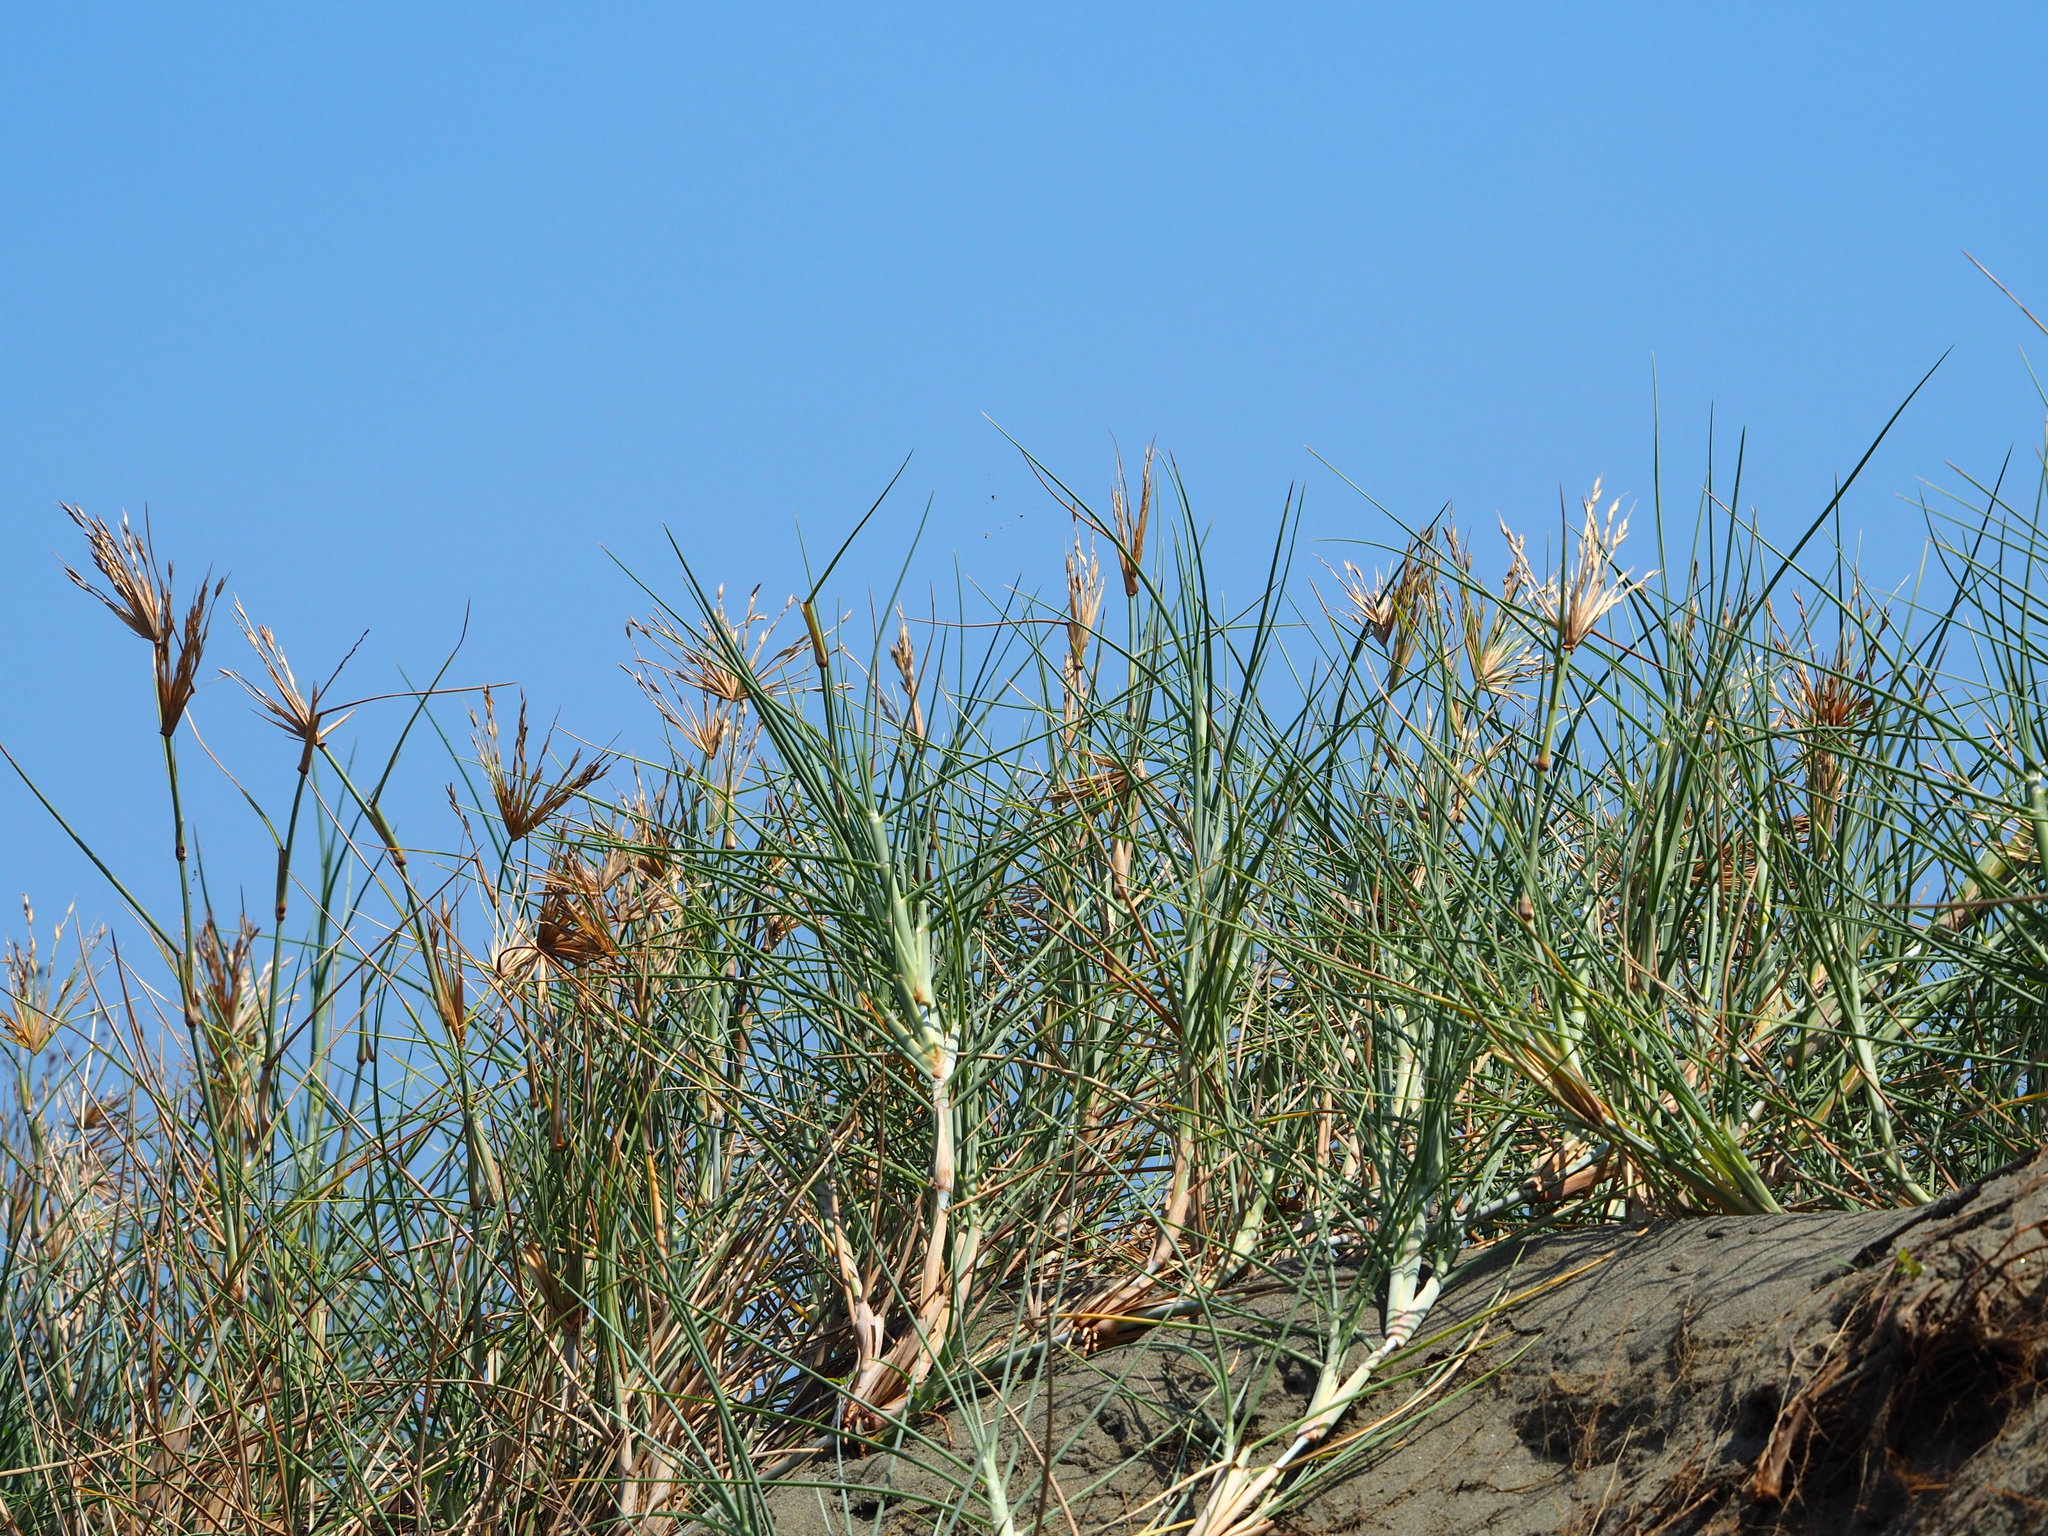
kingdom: Plantae
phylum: Tracheophyta
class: Liliopsida
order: Poales
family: Poaceae
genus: Spinifex
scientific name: Spinifex littoreus
